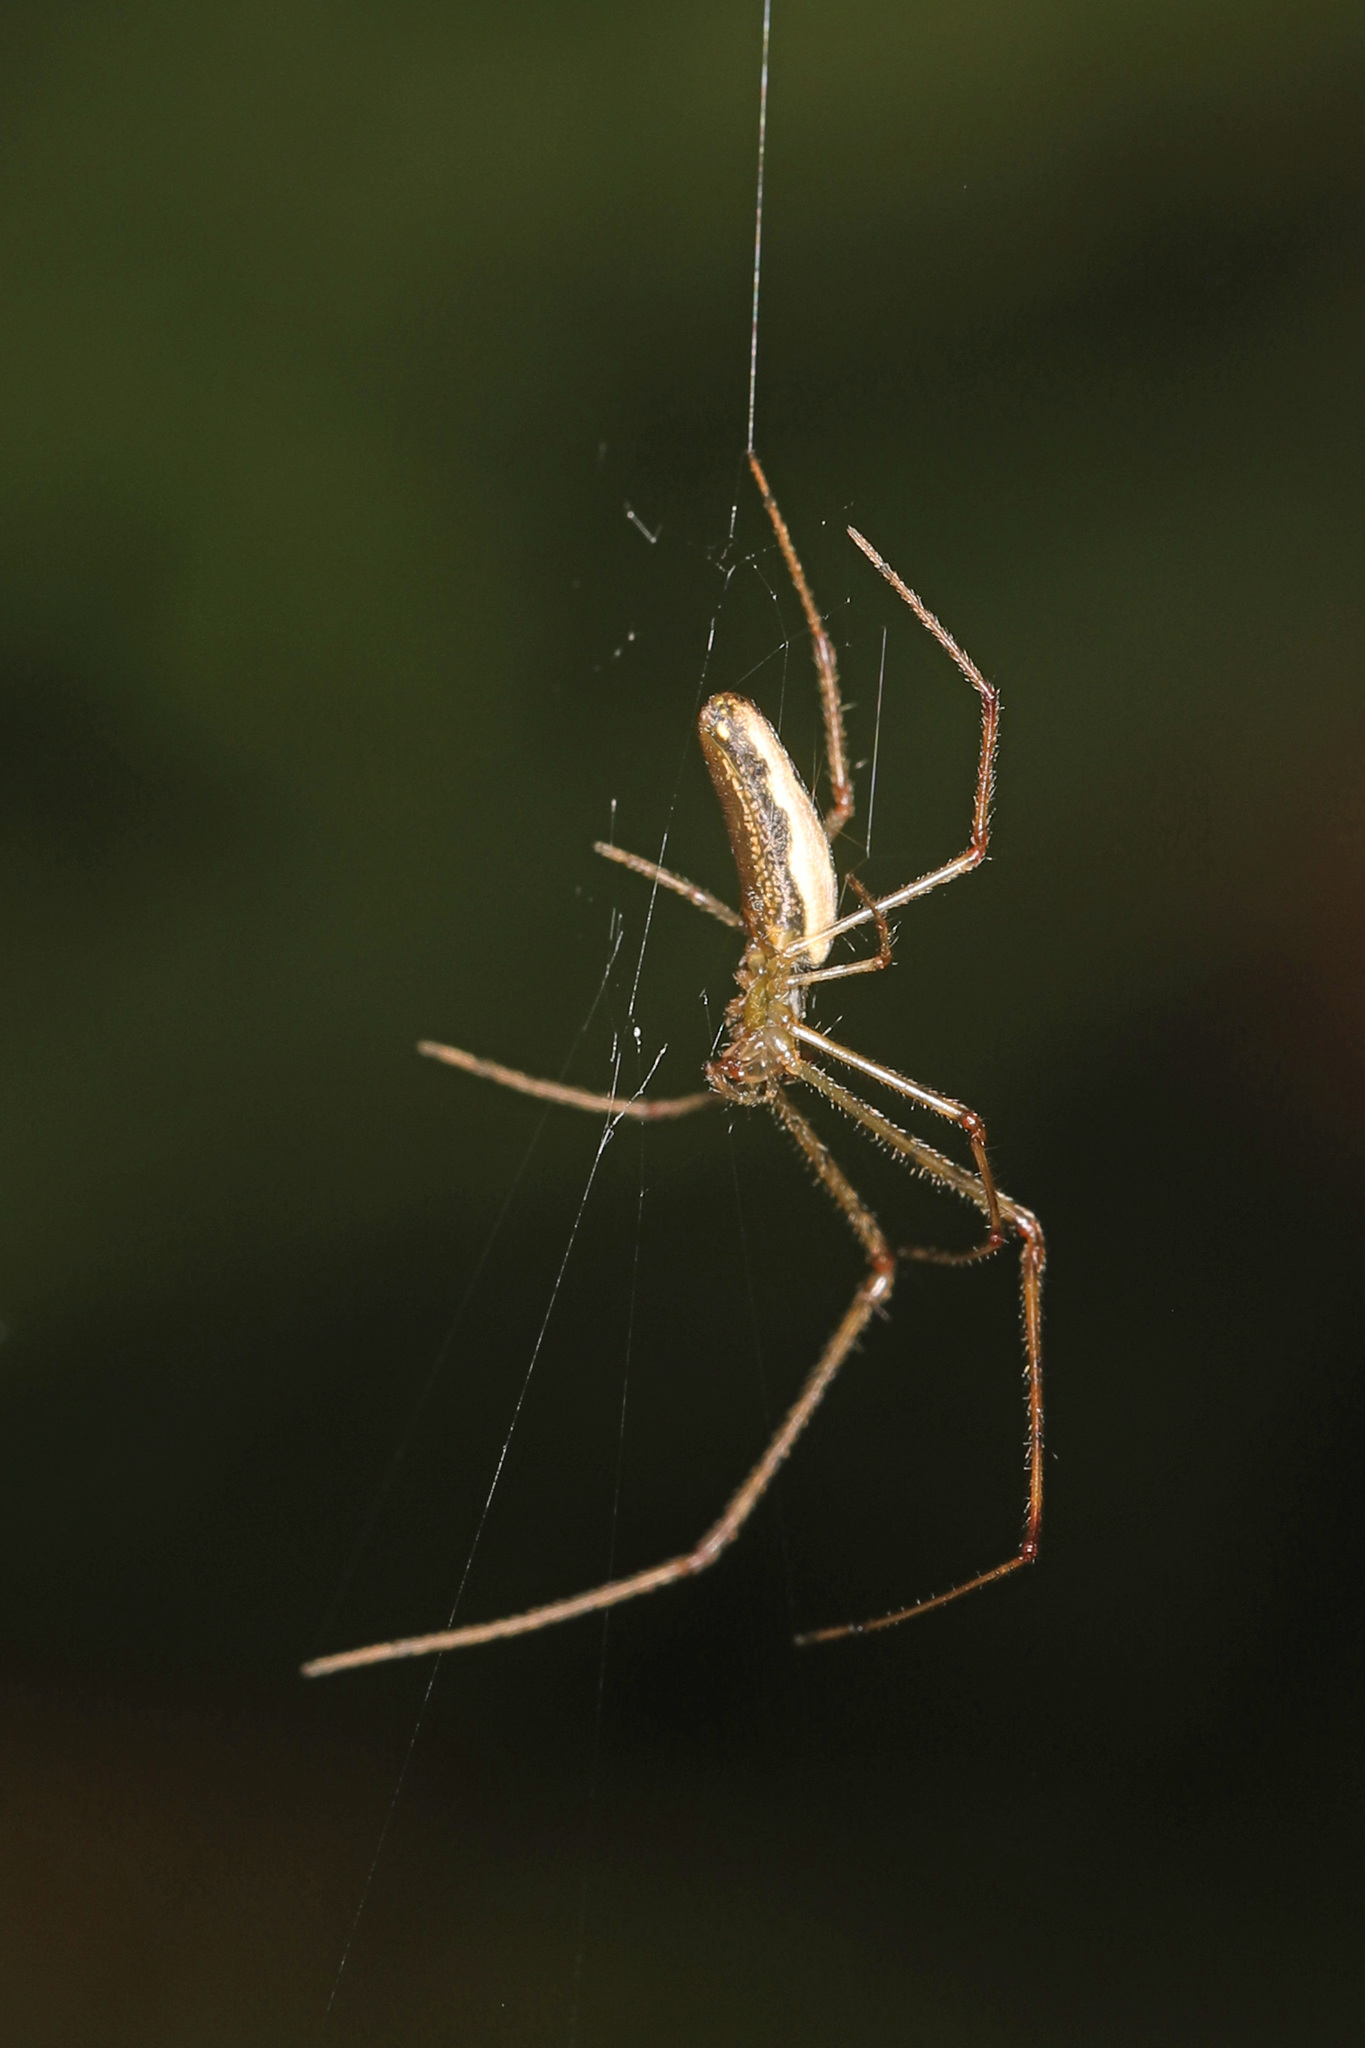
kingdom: Animalia
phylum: Arthropoda
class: Arachnida
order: Araneae
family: Tetragnathidae
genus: Tetragnatha
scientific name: Tetragnatha
